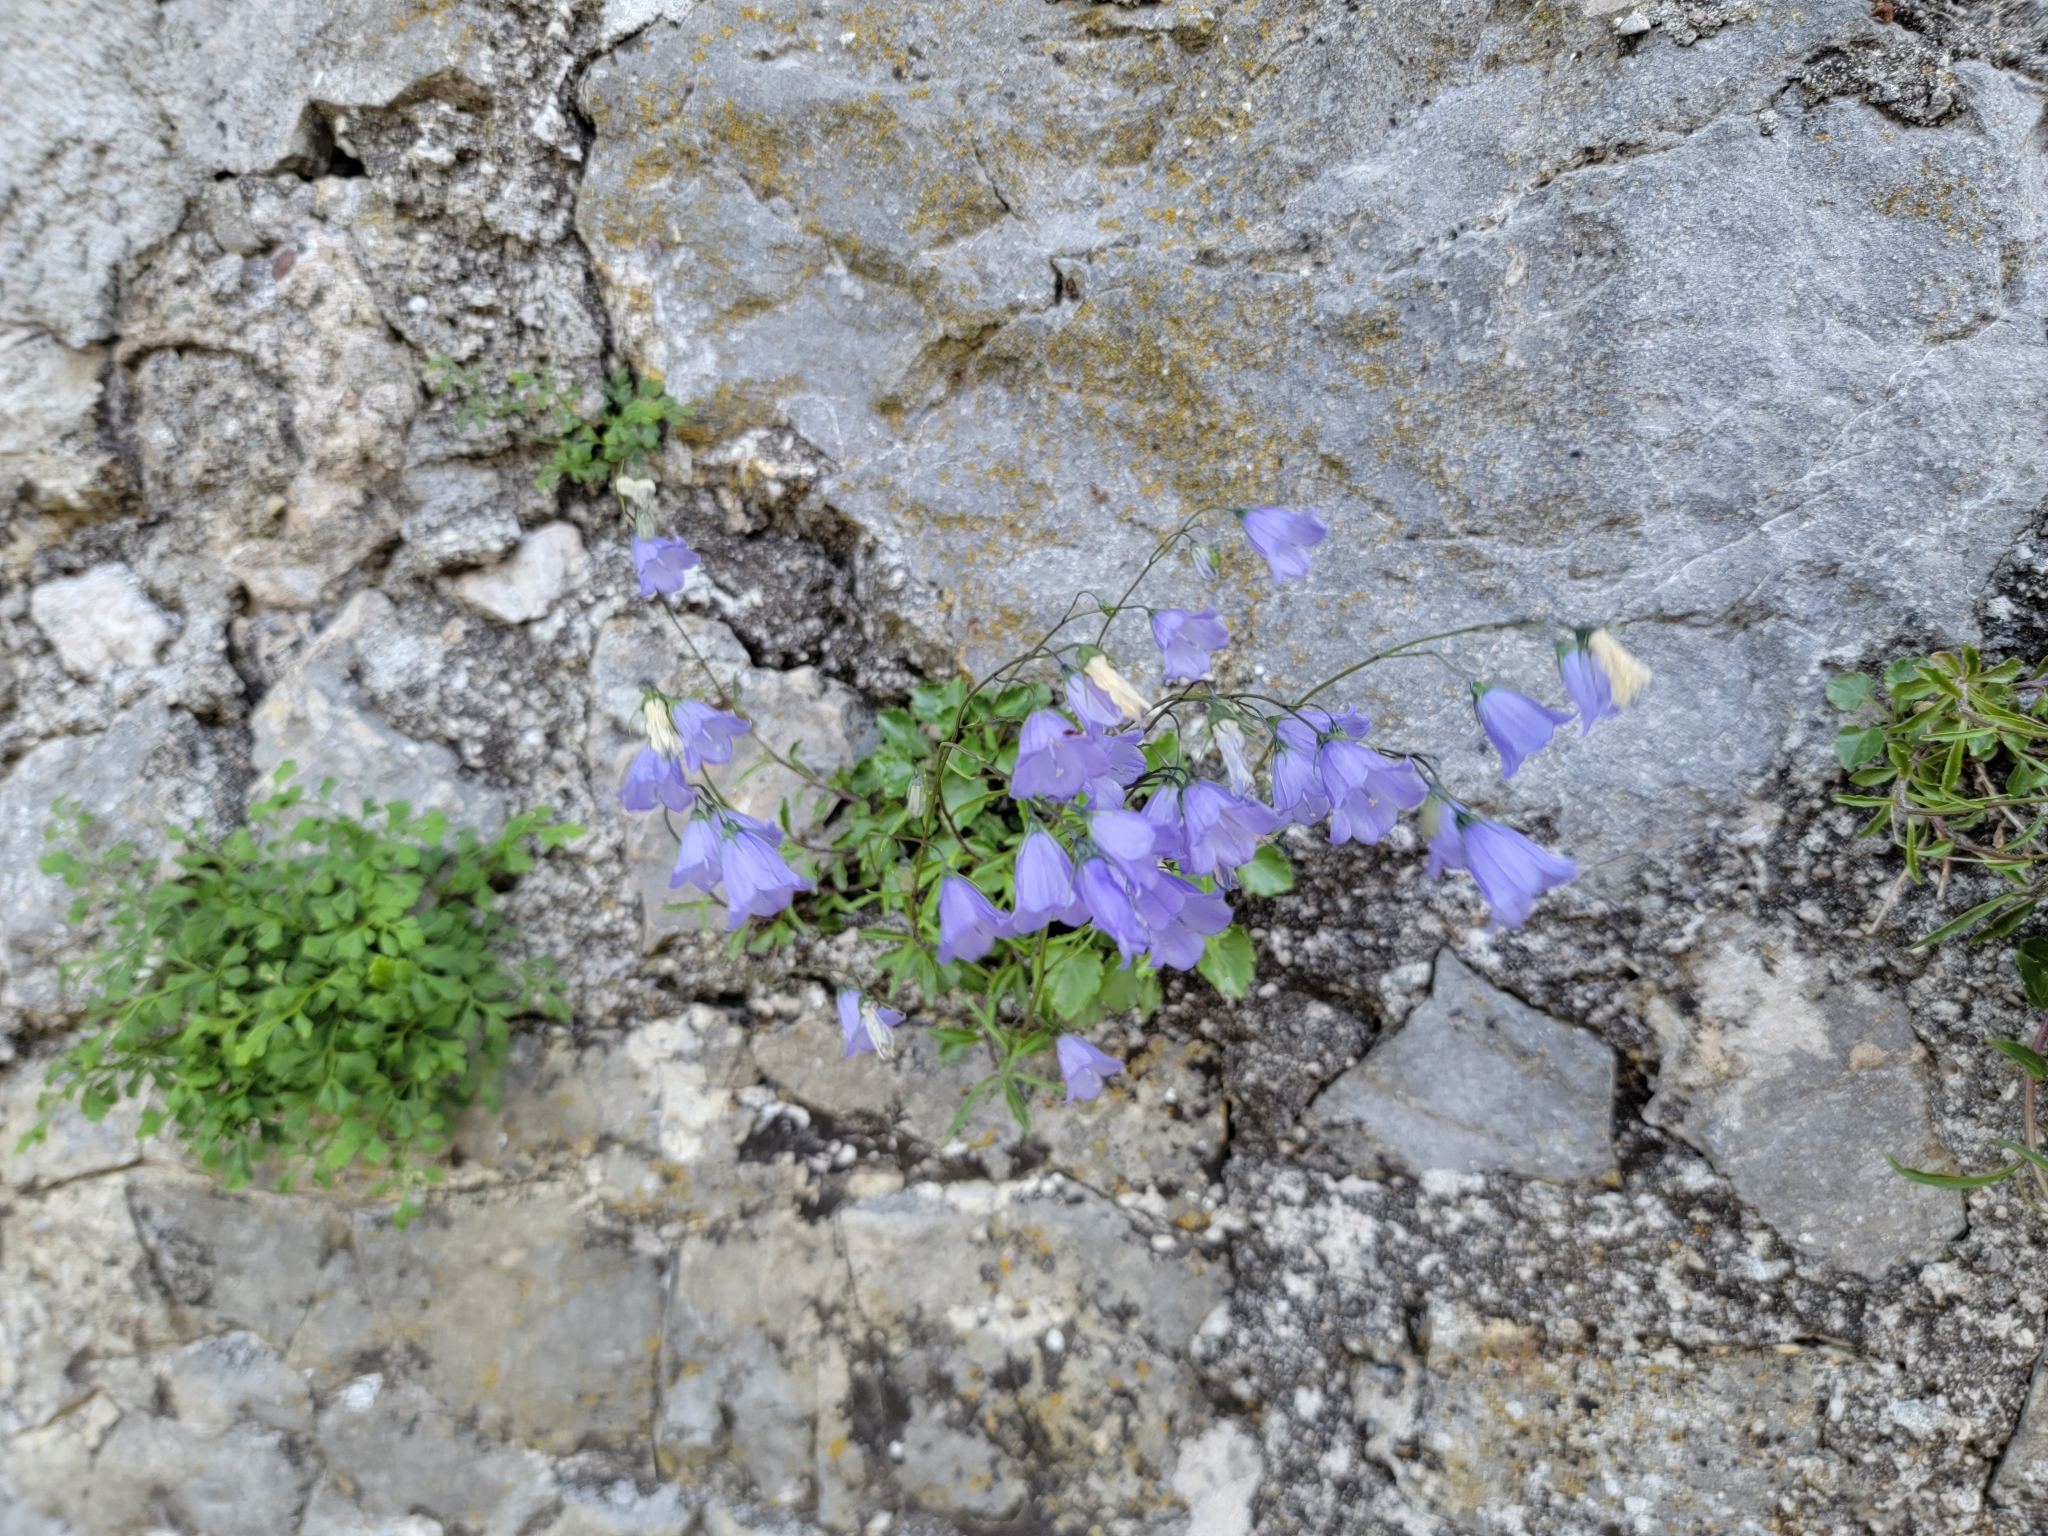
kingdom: Plantae
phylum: Tracheophyta
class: Magnoliopsida
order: Asterales
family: Campanulaceae
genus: Campanula
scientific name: Campanula cochleariifolia
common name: Fairies'-thimbles
